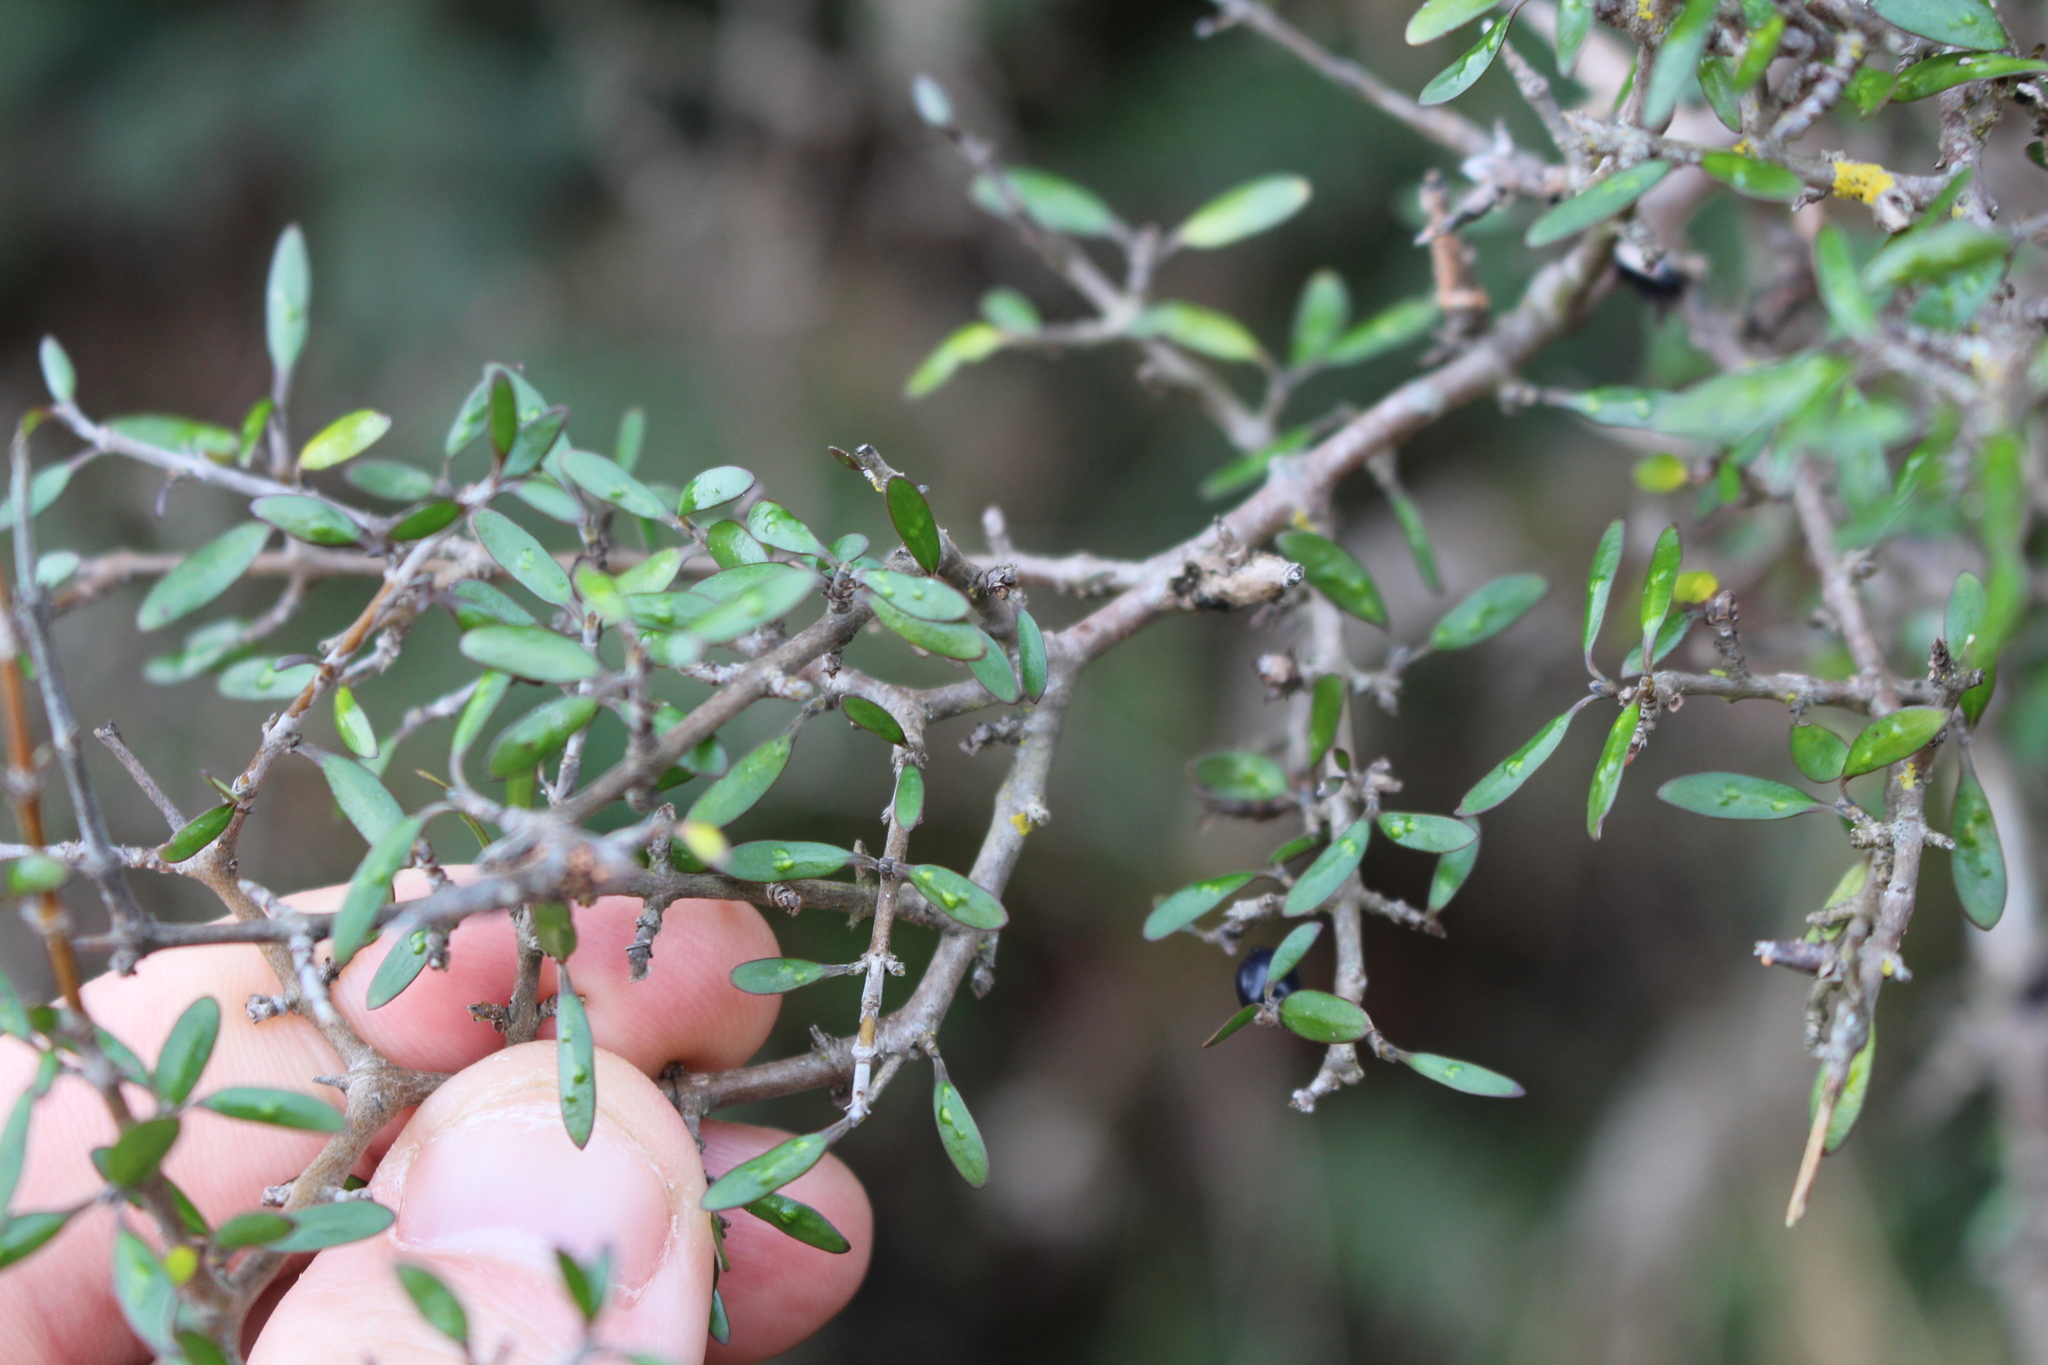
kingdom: Plantae
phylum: Tracheophyta
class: Magnoliopsida
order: Gentianales
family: Rubiaceae
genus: Coprosma
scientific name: Coprosma propinqua
